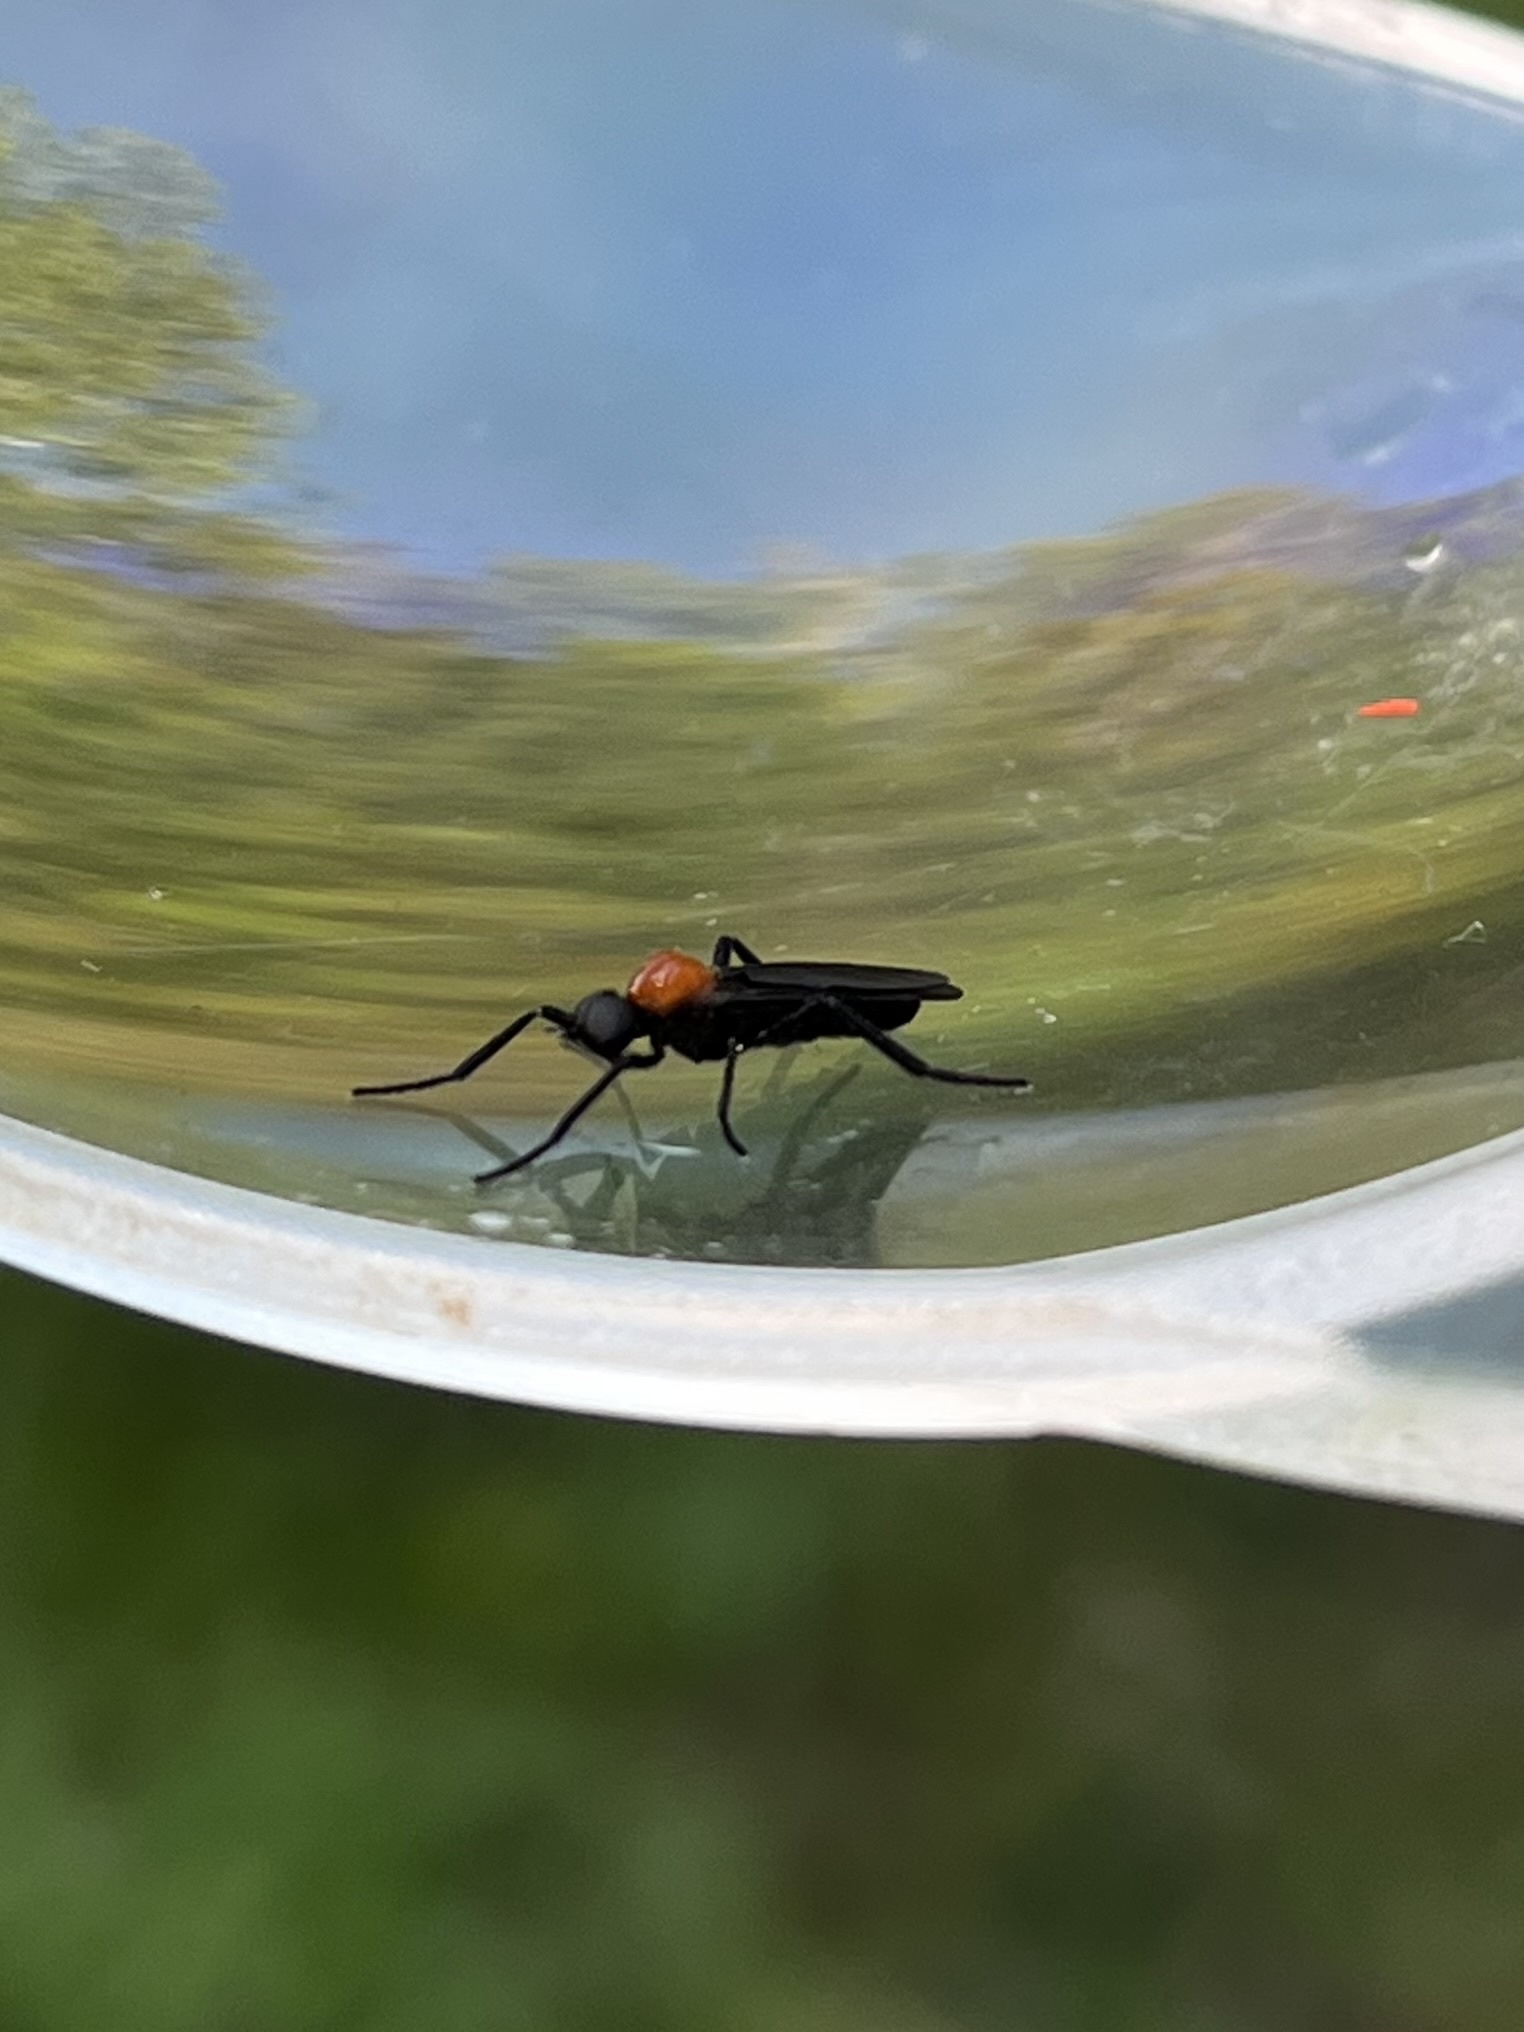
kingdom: Animalia
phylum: Arthropoda
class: Insecta
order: Diptera
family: Bibionidae
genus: Plecia
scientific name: Plecia nearctica
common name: March fly
